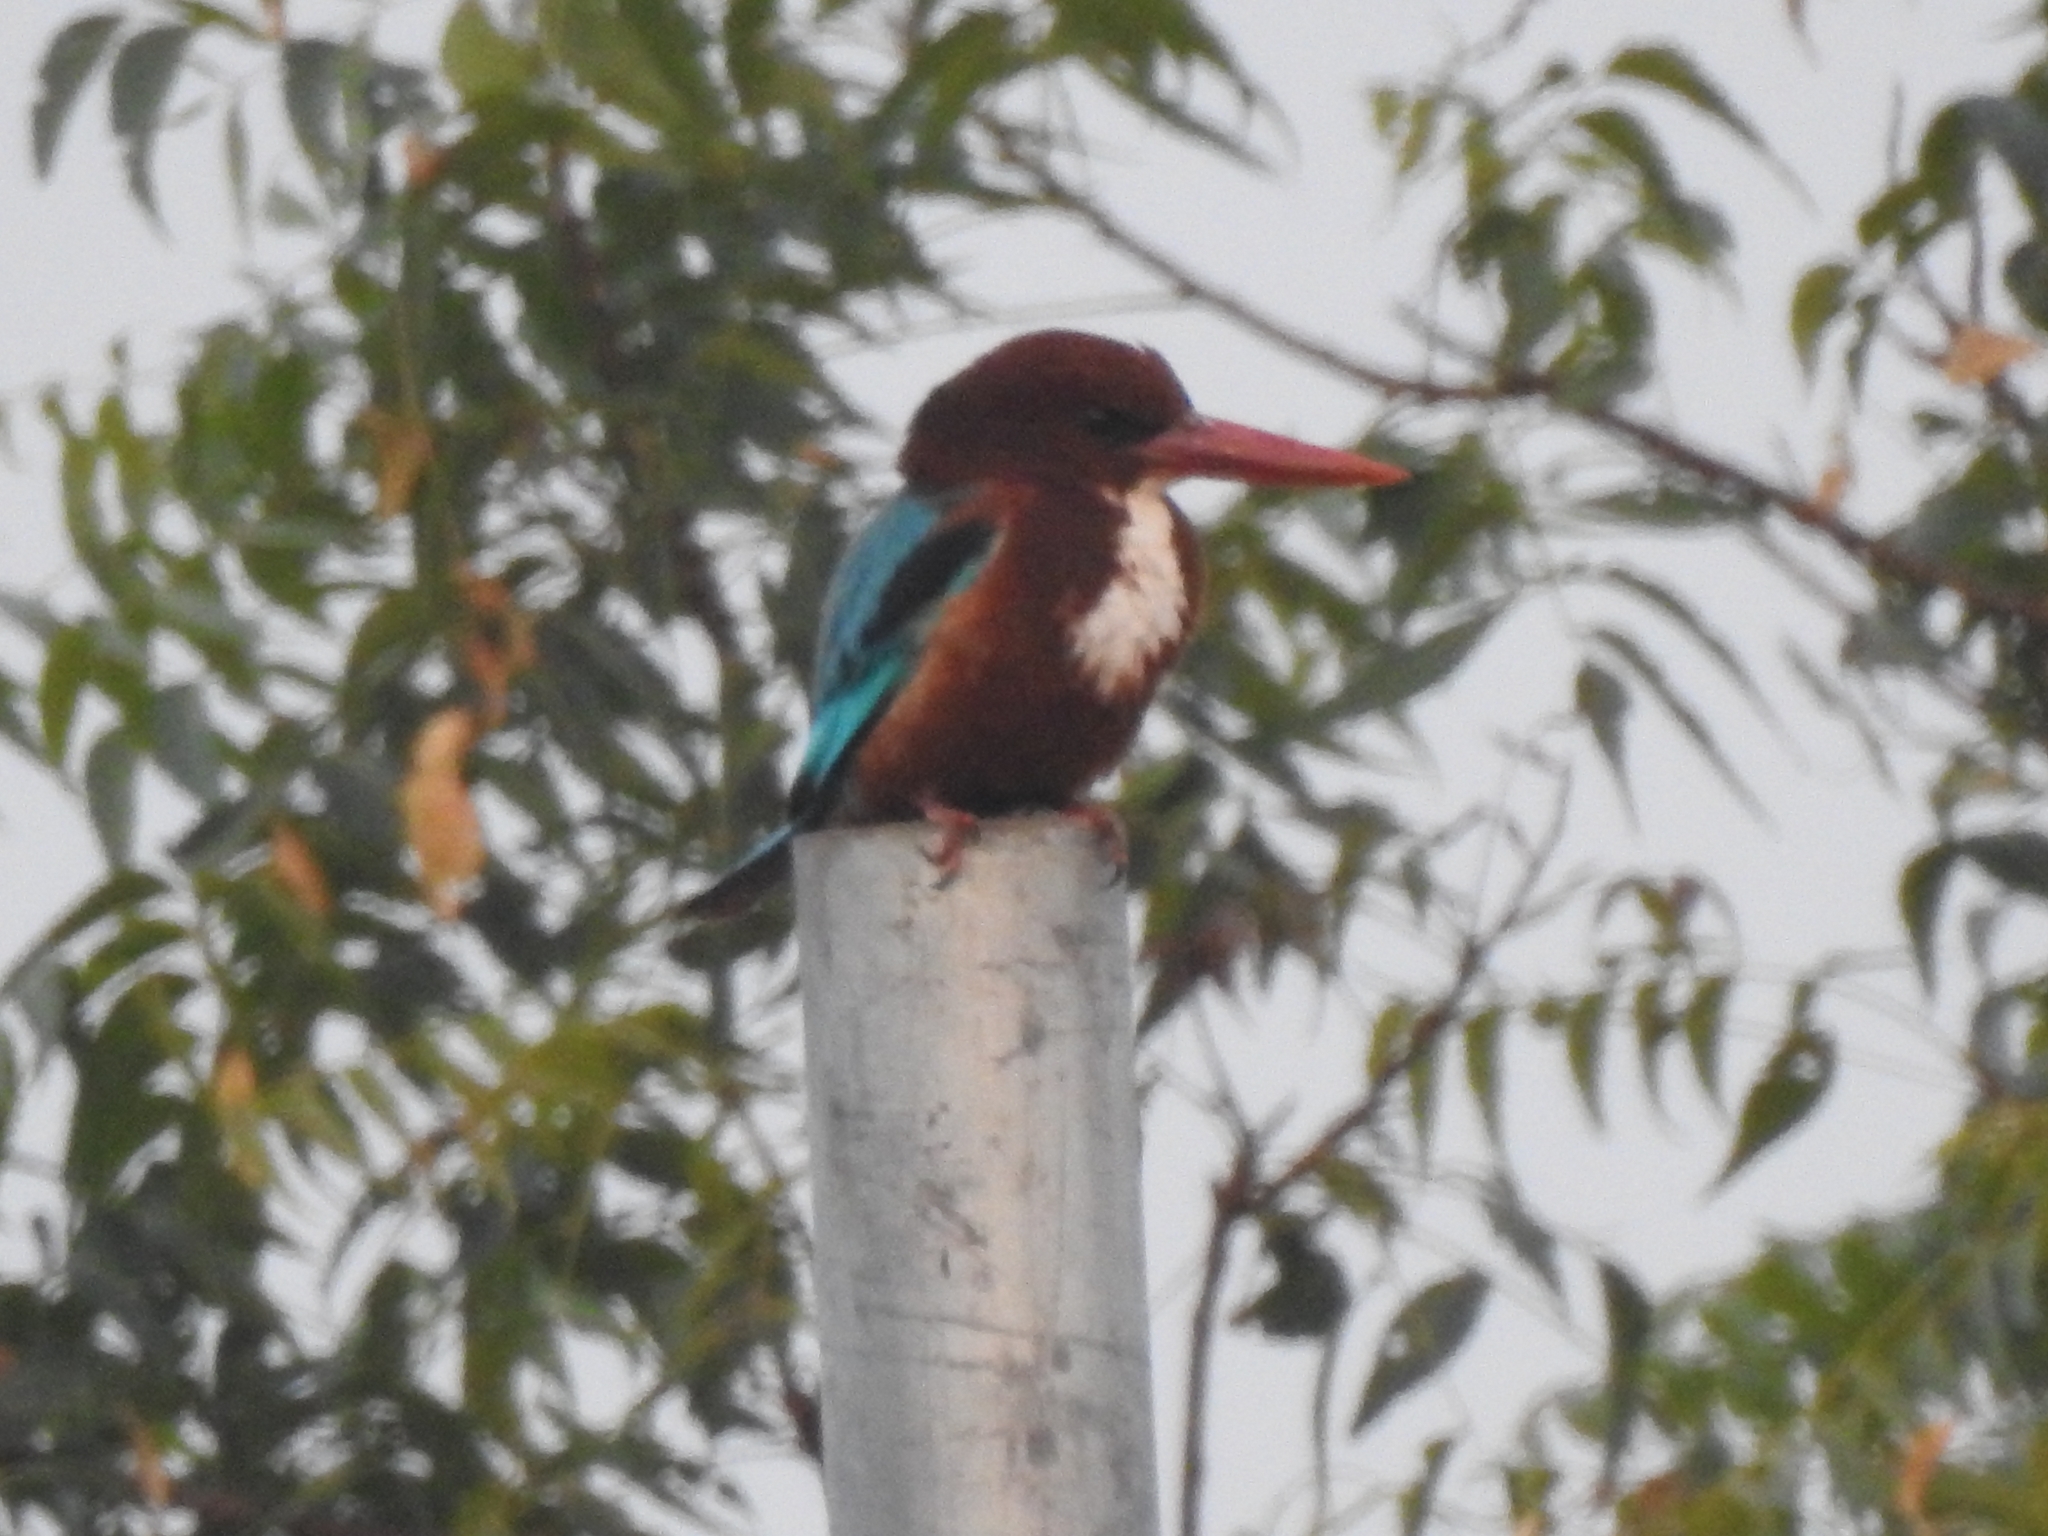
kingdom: Animalia
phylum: Chordata
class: Aves
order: Coraciiformes
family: Alcedinidae
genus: Halcyon
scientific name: Halcyon smyrnensis
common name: White-throated kingfisher
